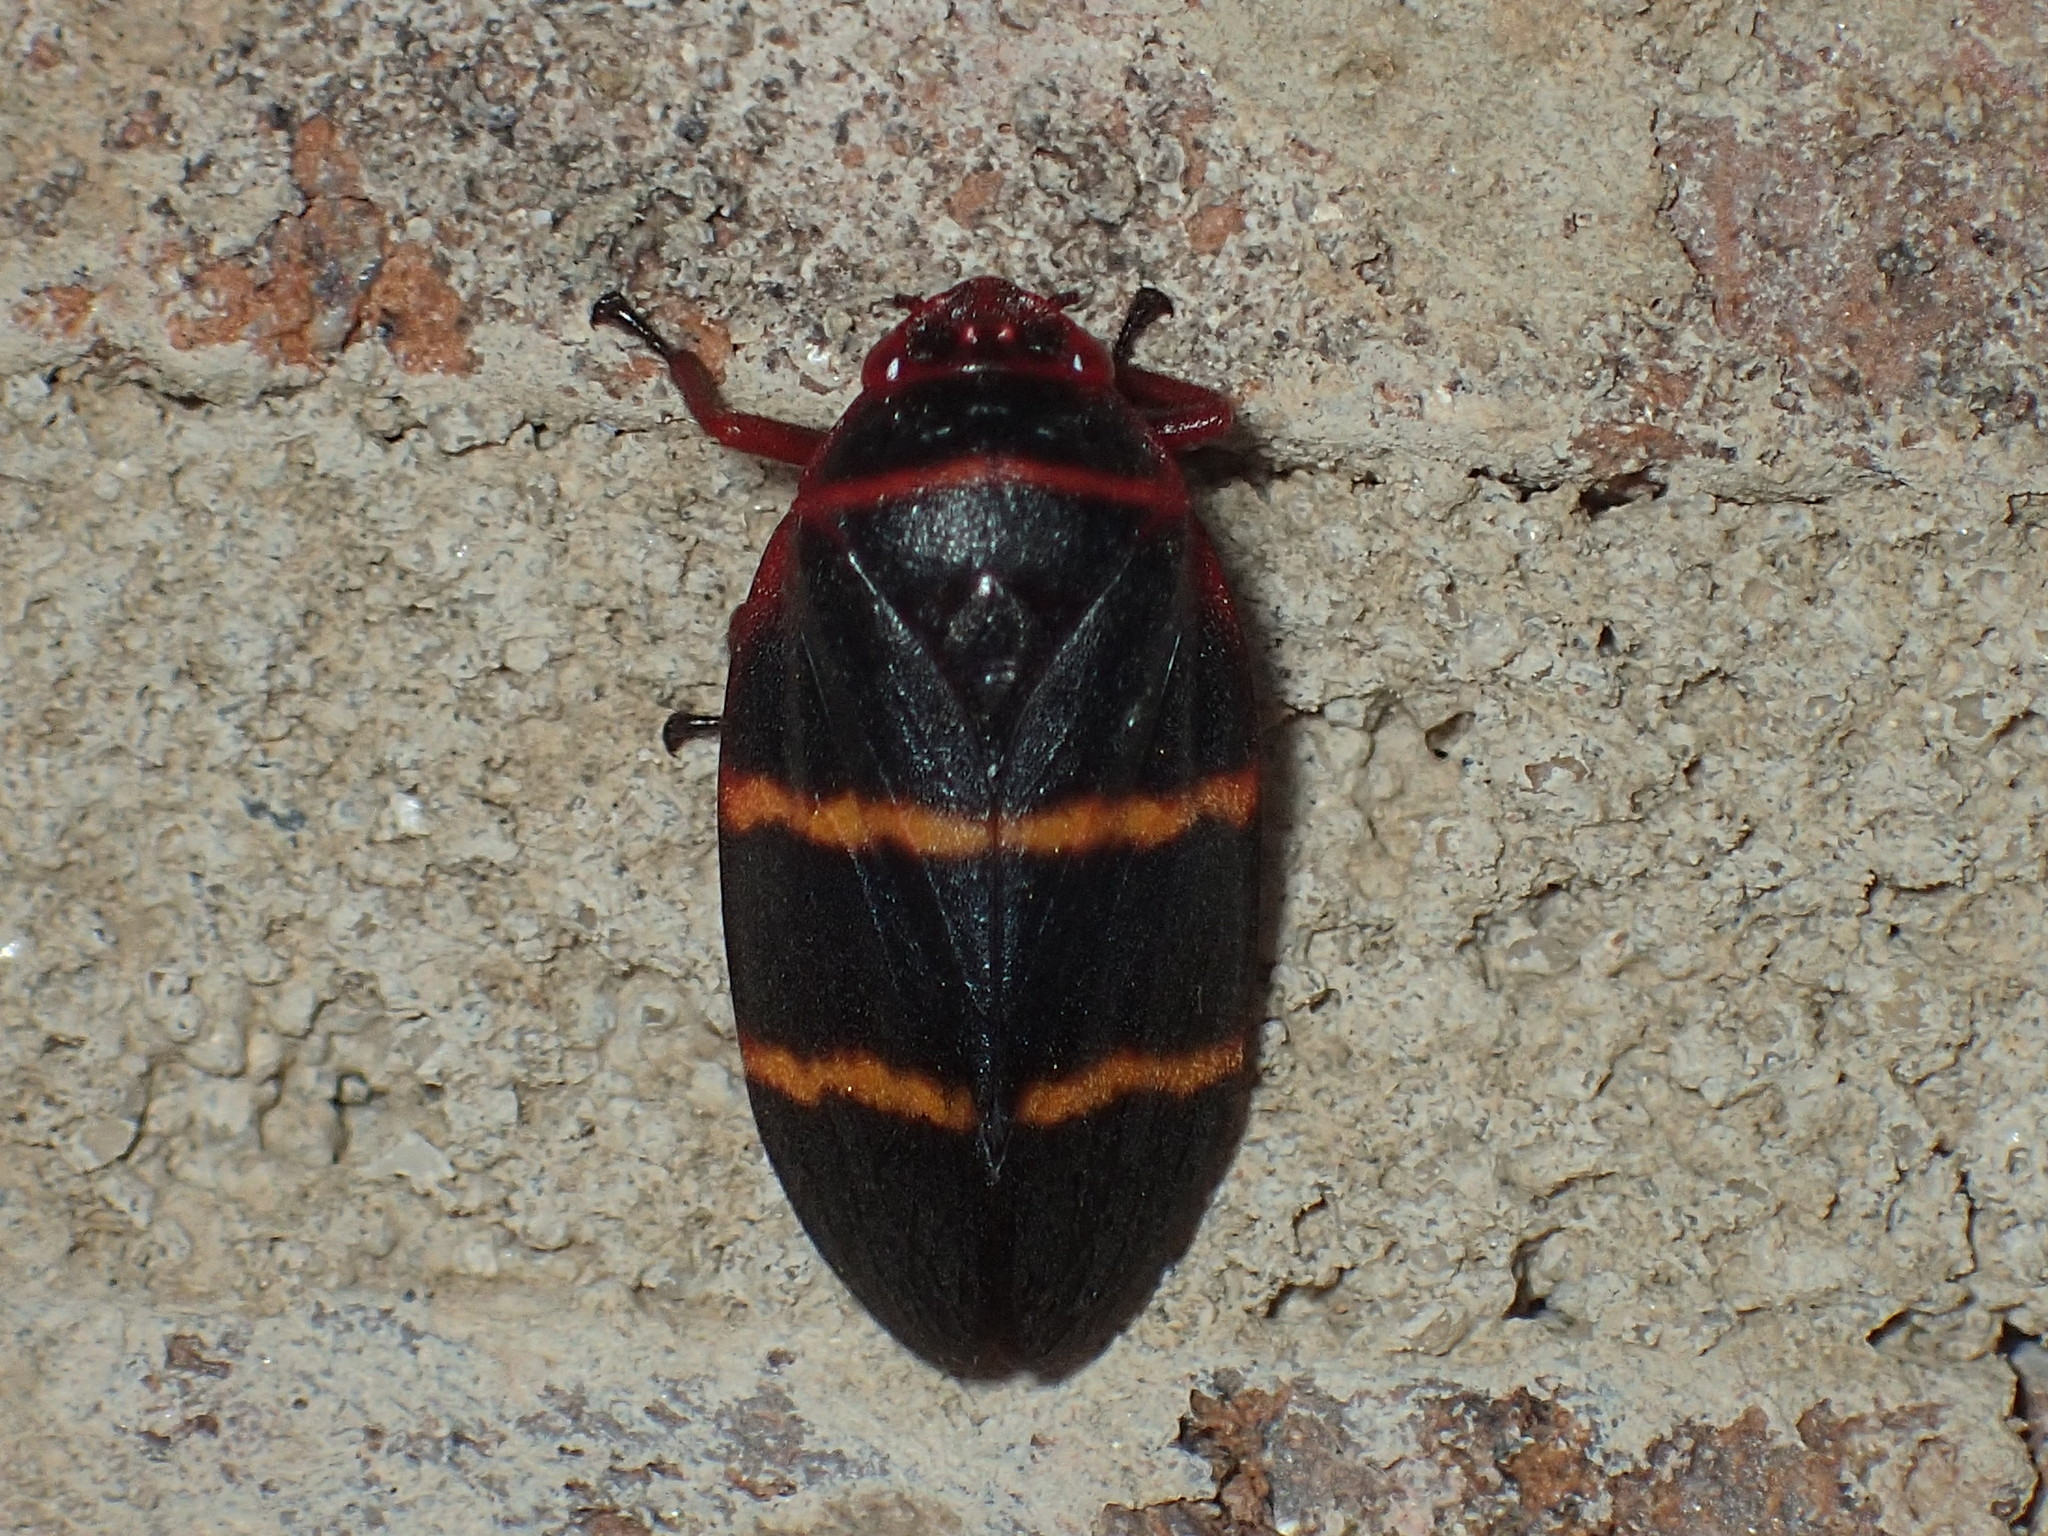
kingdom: Animalia
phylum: Arthropoda
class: Insecta
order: Hemiptera
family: Cercopidae
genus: Prosapia
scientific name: Prosapia bicincta
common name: Twolined spittlebug
